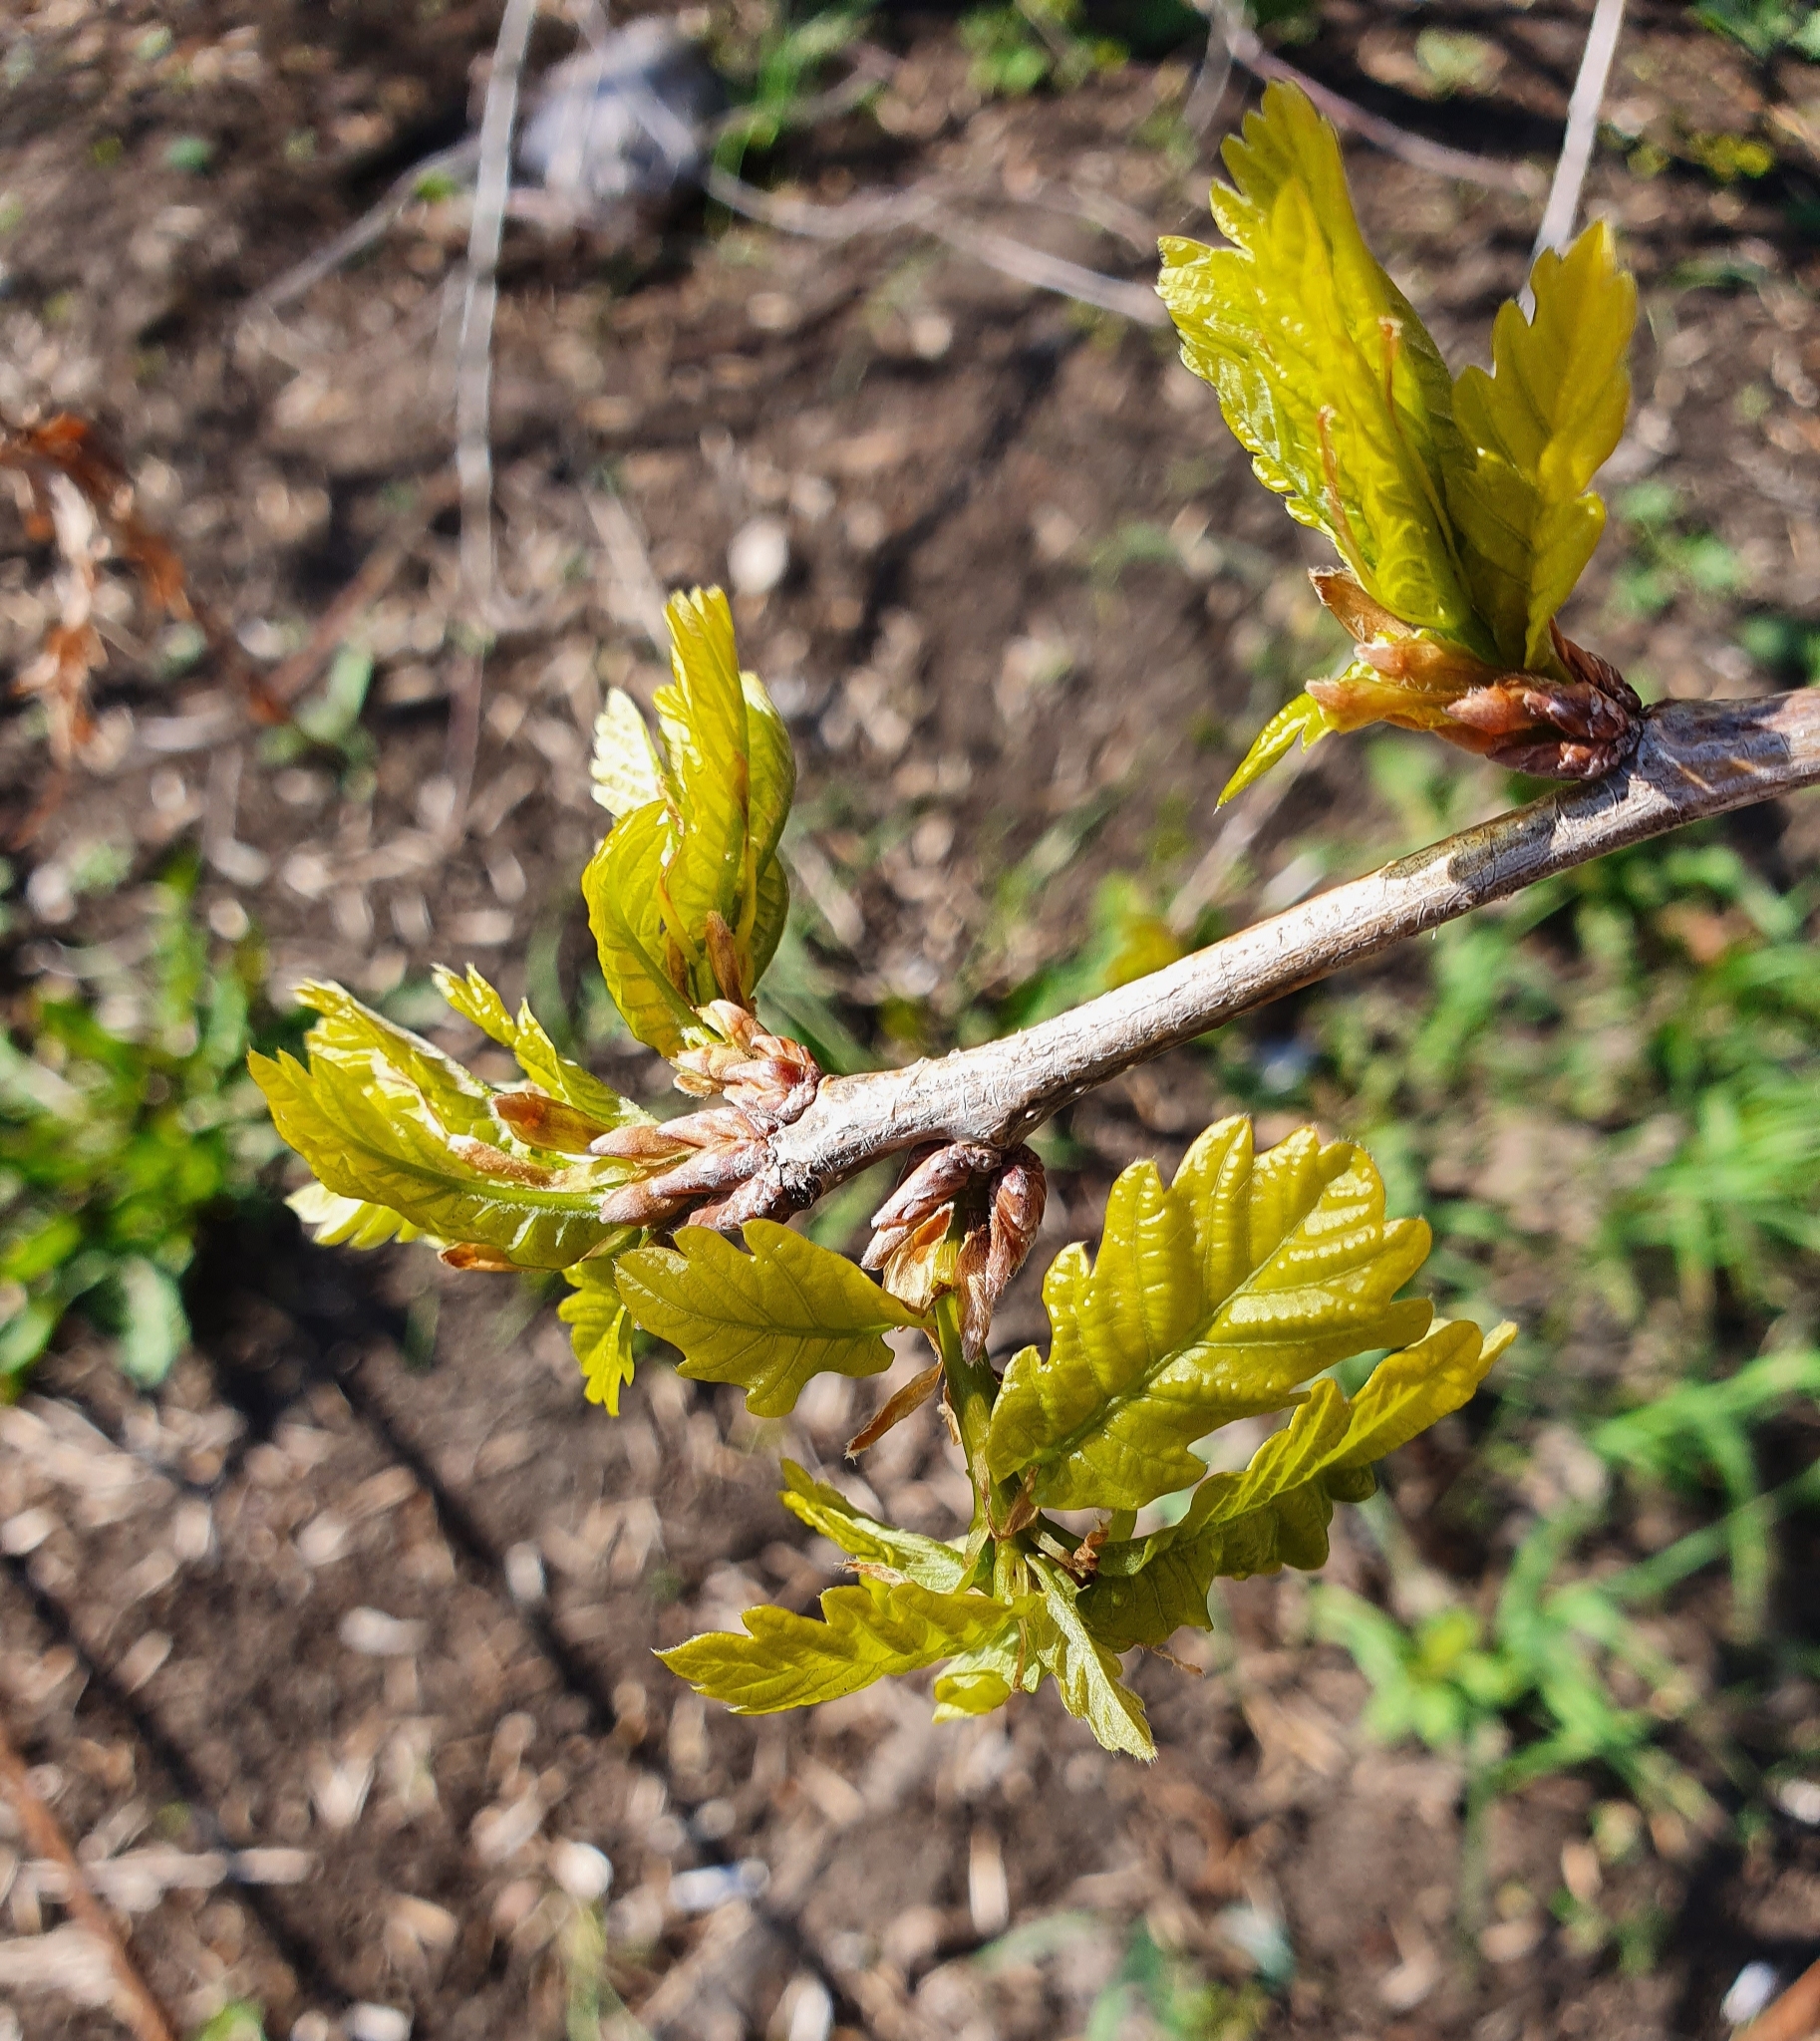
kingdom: Plantae
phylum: Tracheophyta
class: Magnoliopsida
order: Fagales
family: Fagaceae
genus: Quercus
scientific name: Quercus robur
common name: Pedunculate oak
